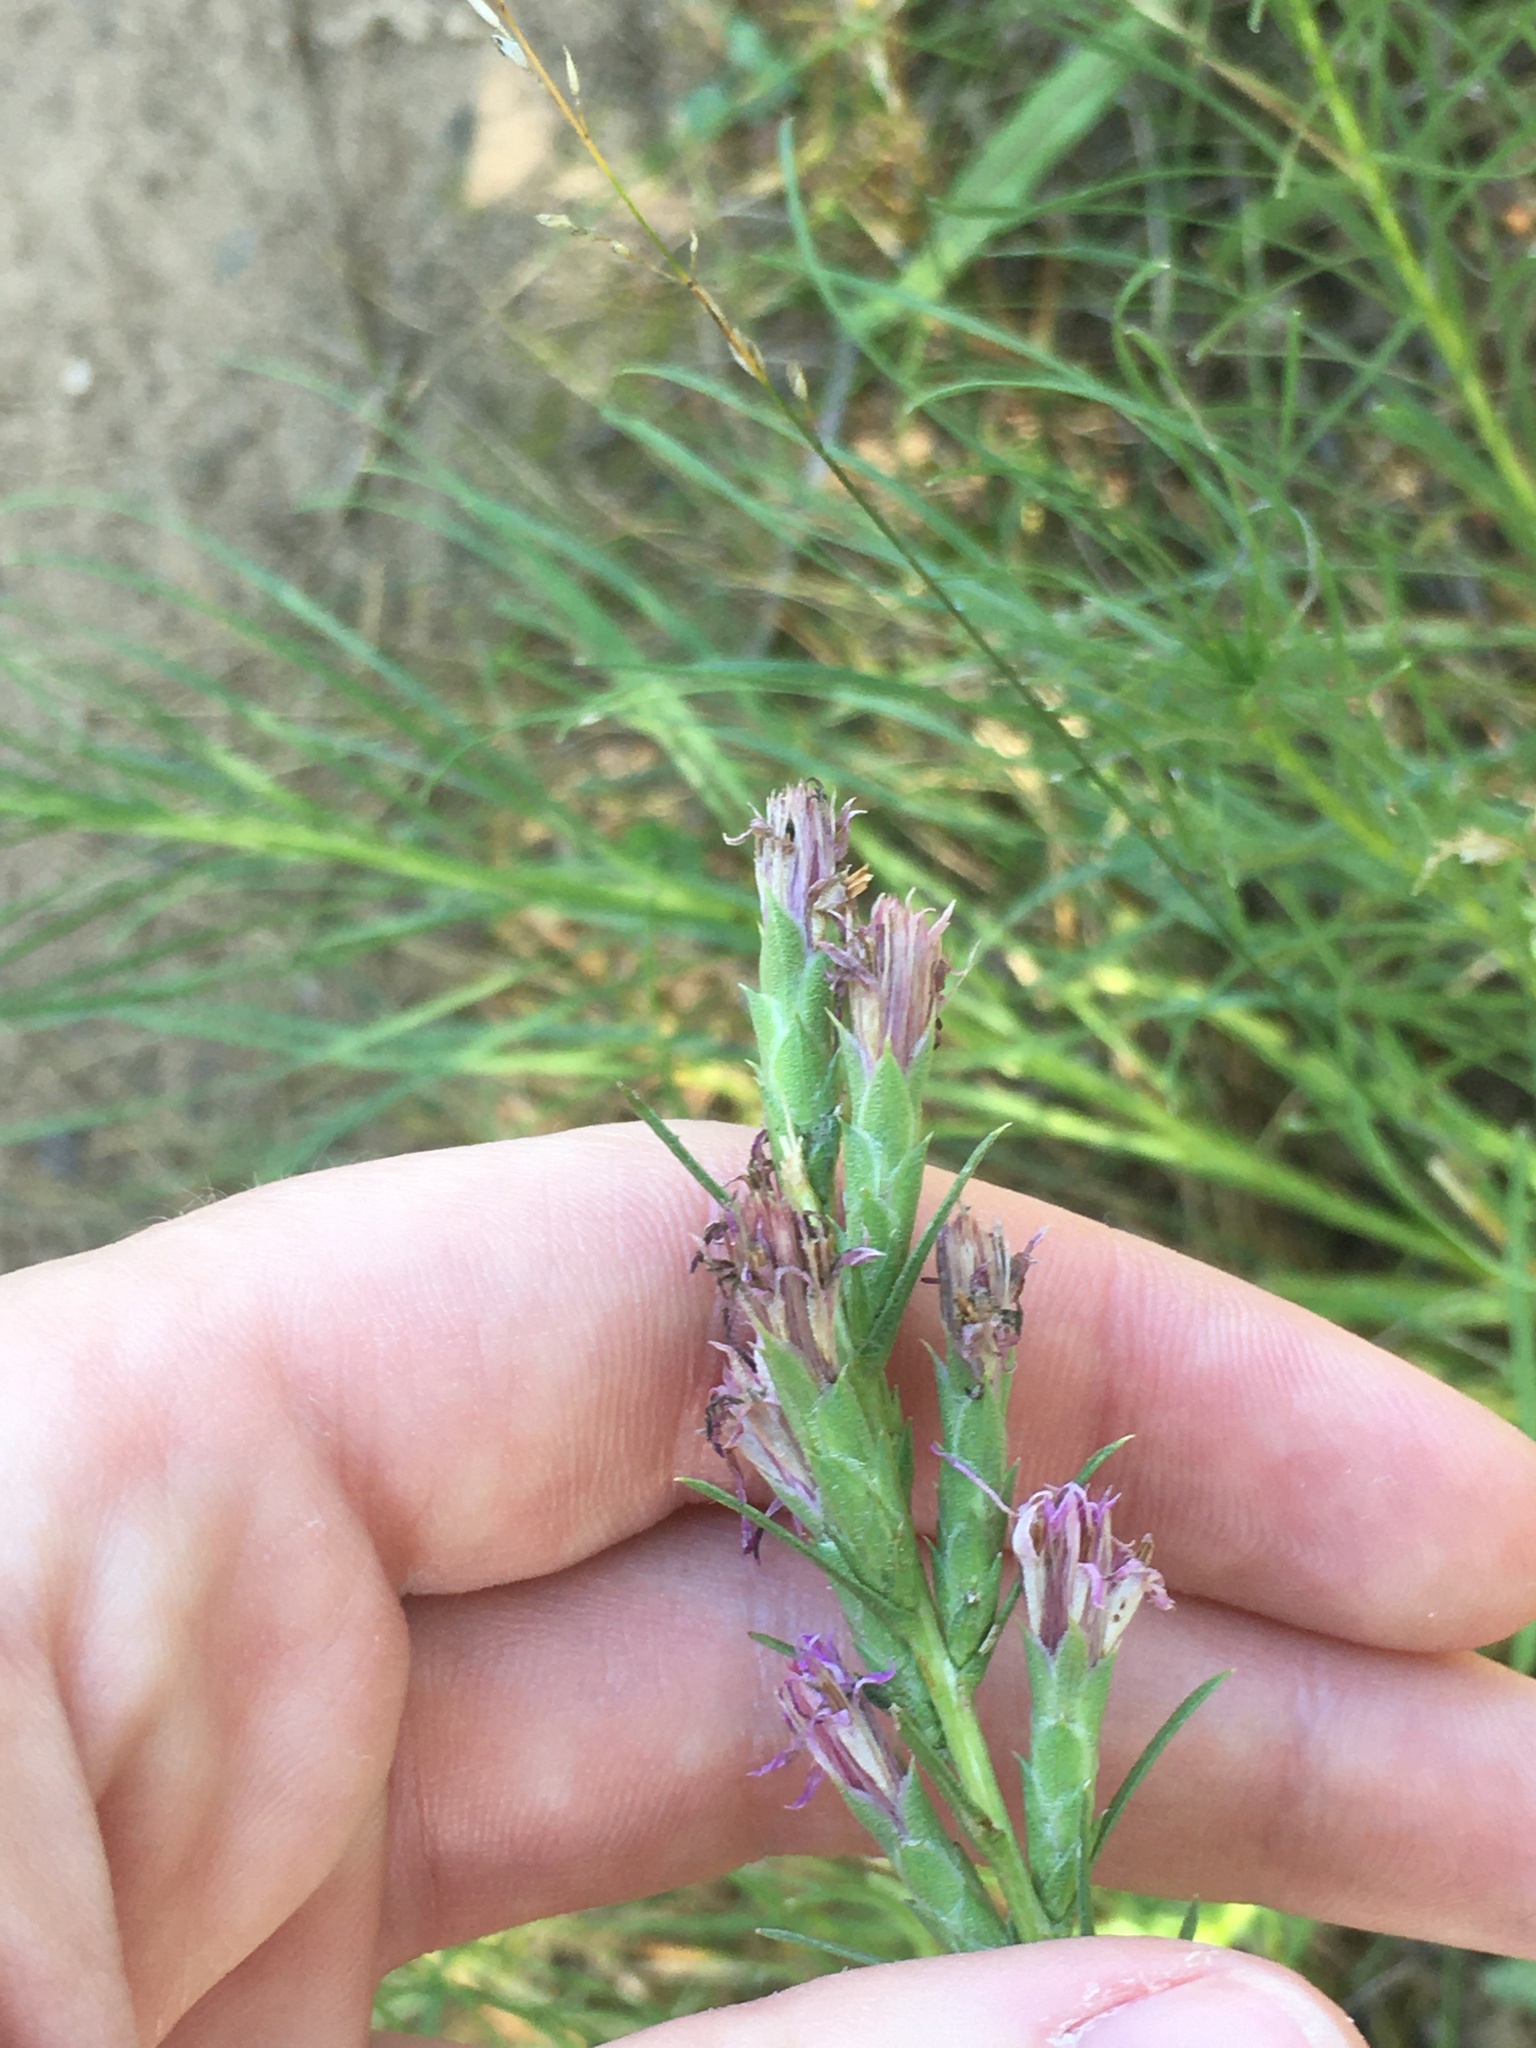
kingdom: Plantae
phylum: Tracheophyta
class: Magnoliopsida
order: Asterales
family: Asteraceae
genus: Liatris
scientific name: Liatris punctata
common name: Dotted gayfeather
